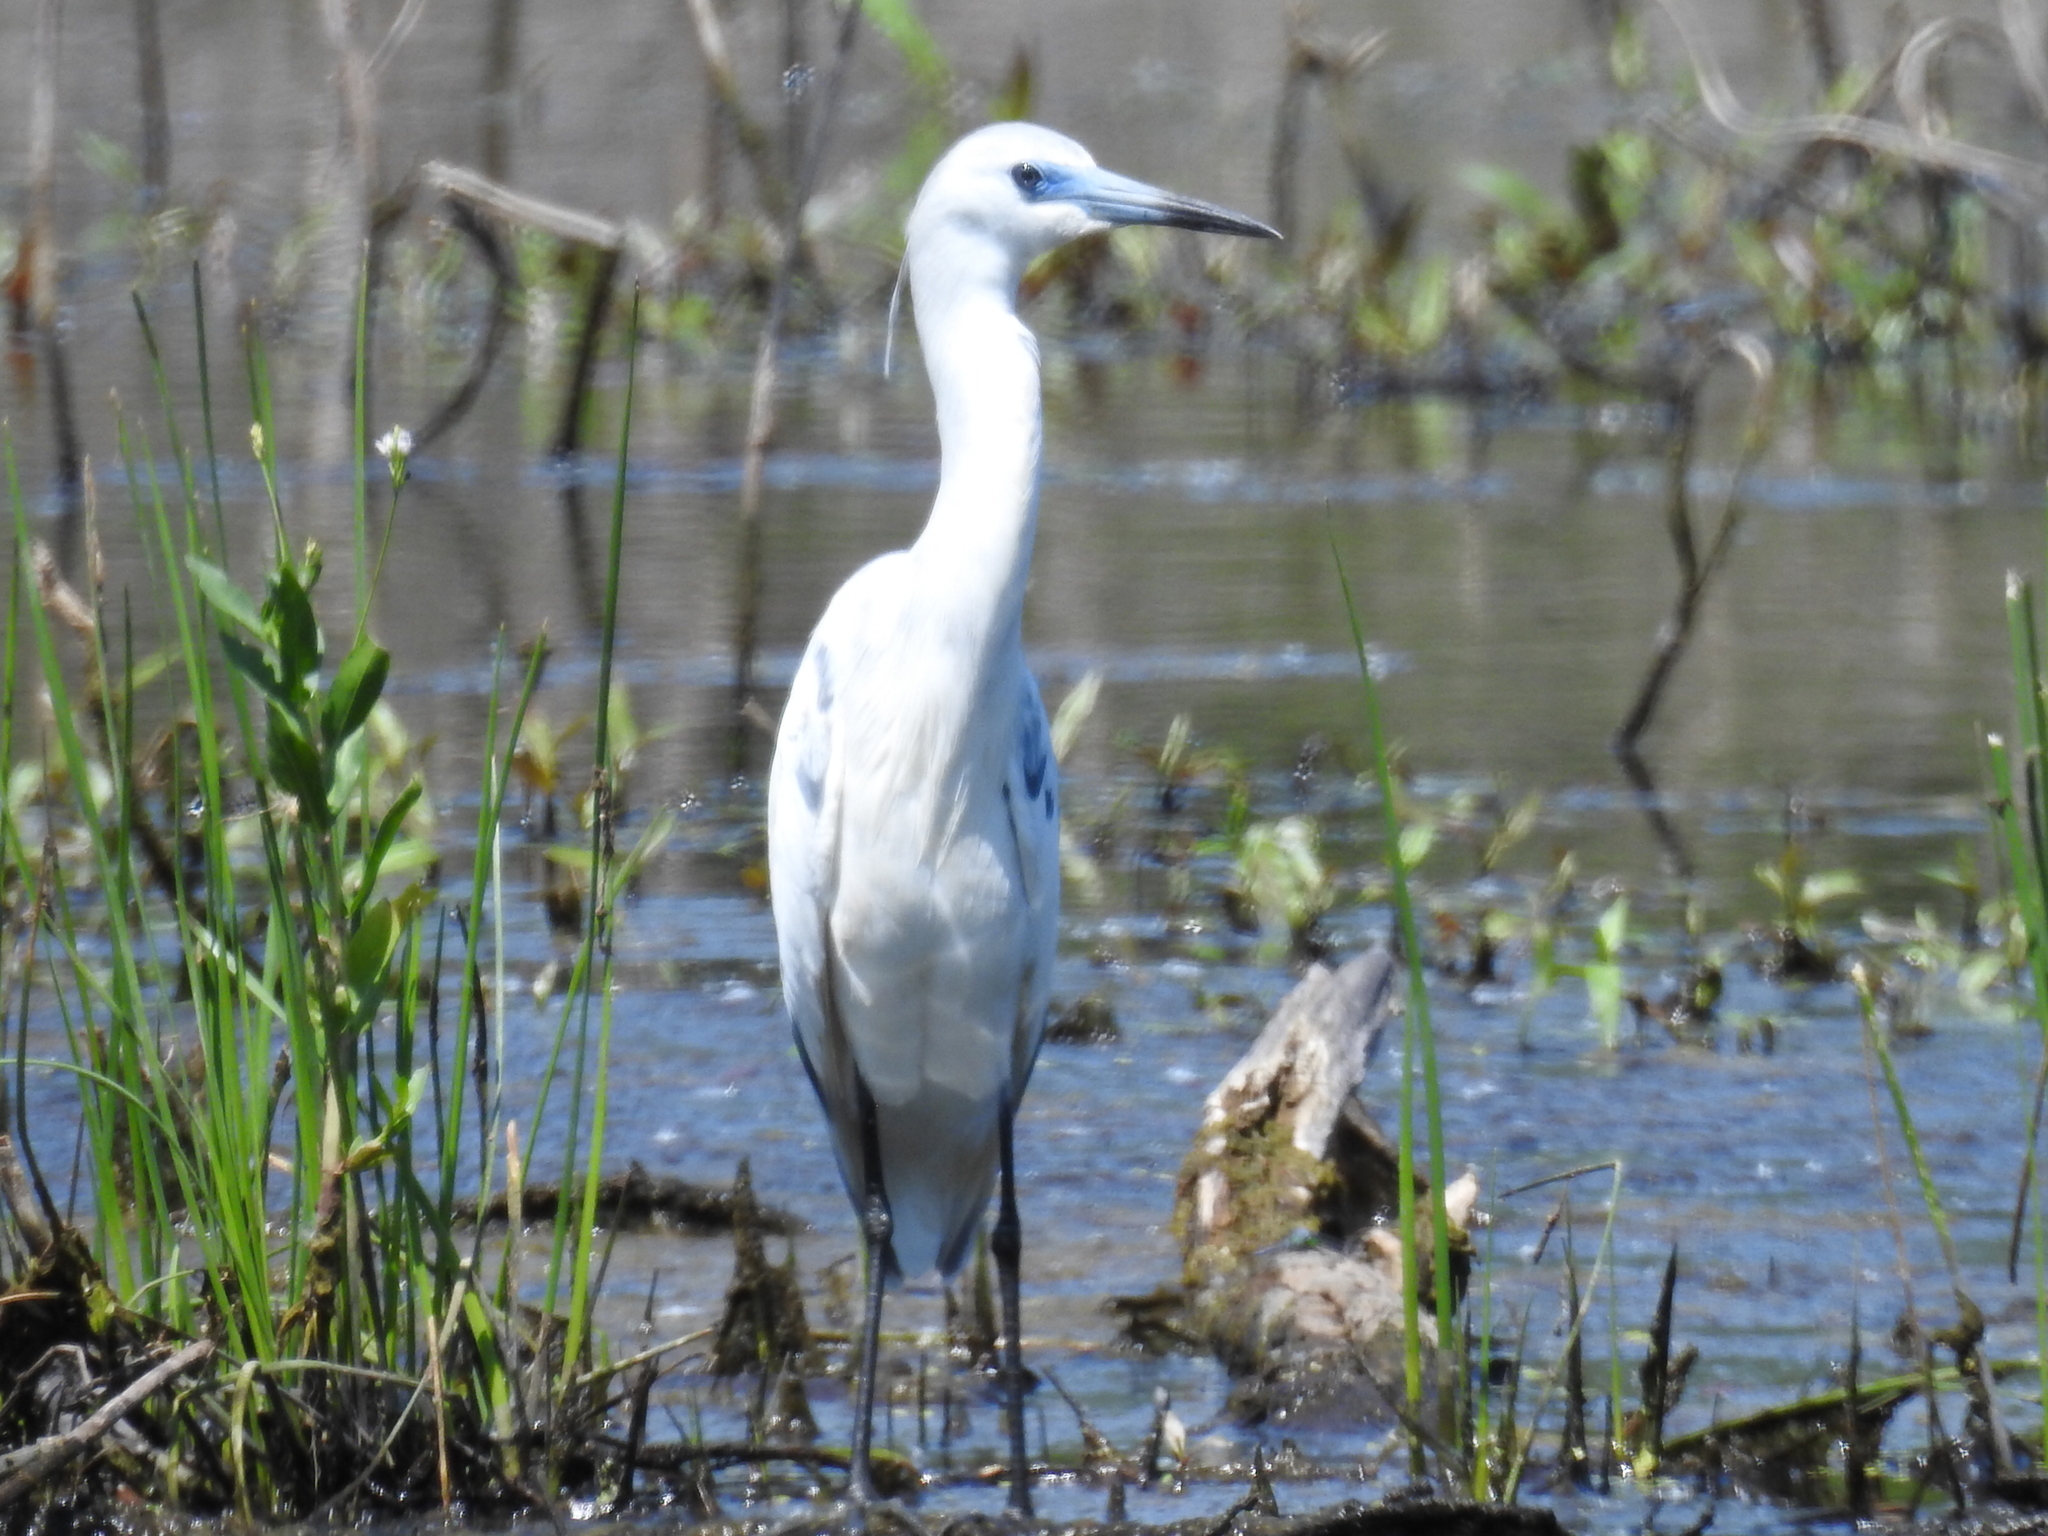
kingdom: Animalia
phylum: Chordata
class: Aves
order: Pelecaniformes
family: Ardeidae
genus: Egretta
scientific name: Egretta caerulea
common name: Little blue heron
